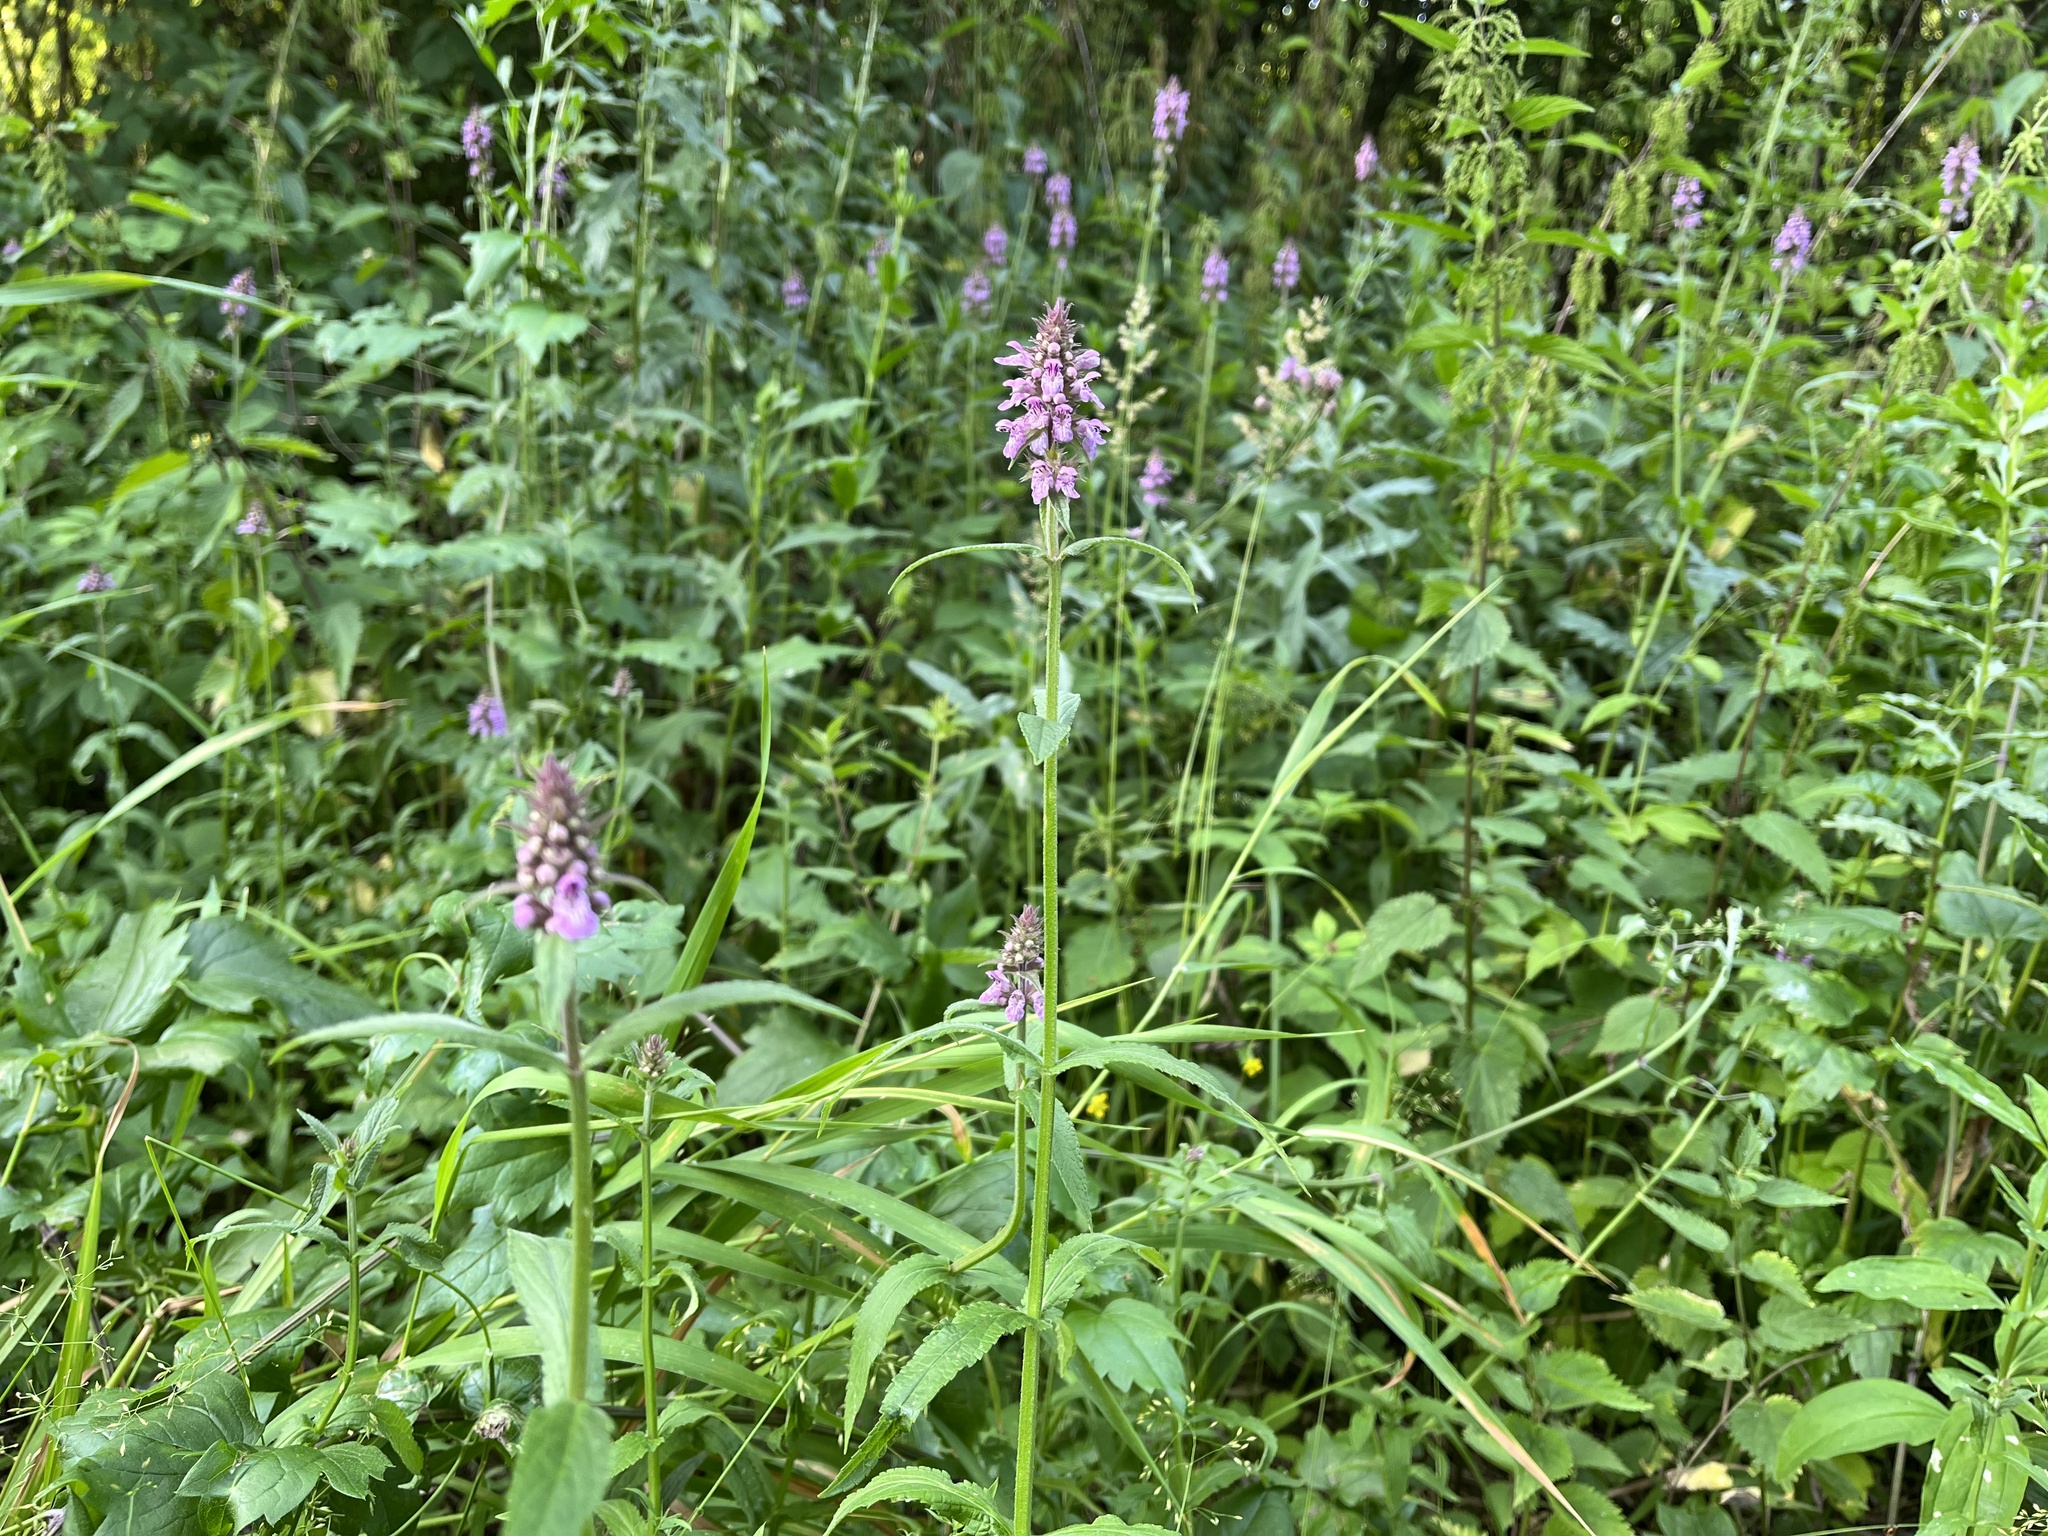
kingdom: Plantae
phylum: Tracheophyta
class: Magnoliopsida
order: Lamiales
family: Lamiaceae
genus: Stachys
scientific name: Stachys palustris
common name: Marsh woundwort
